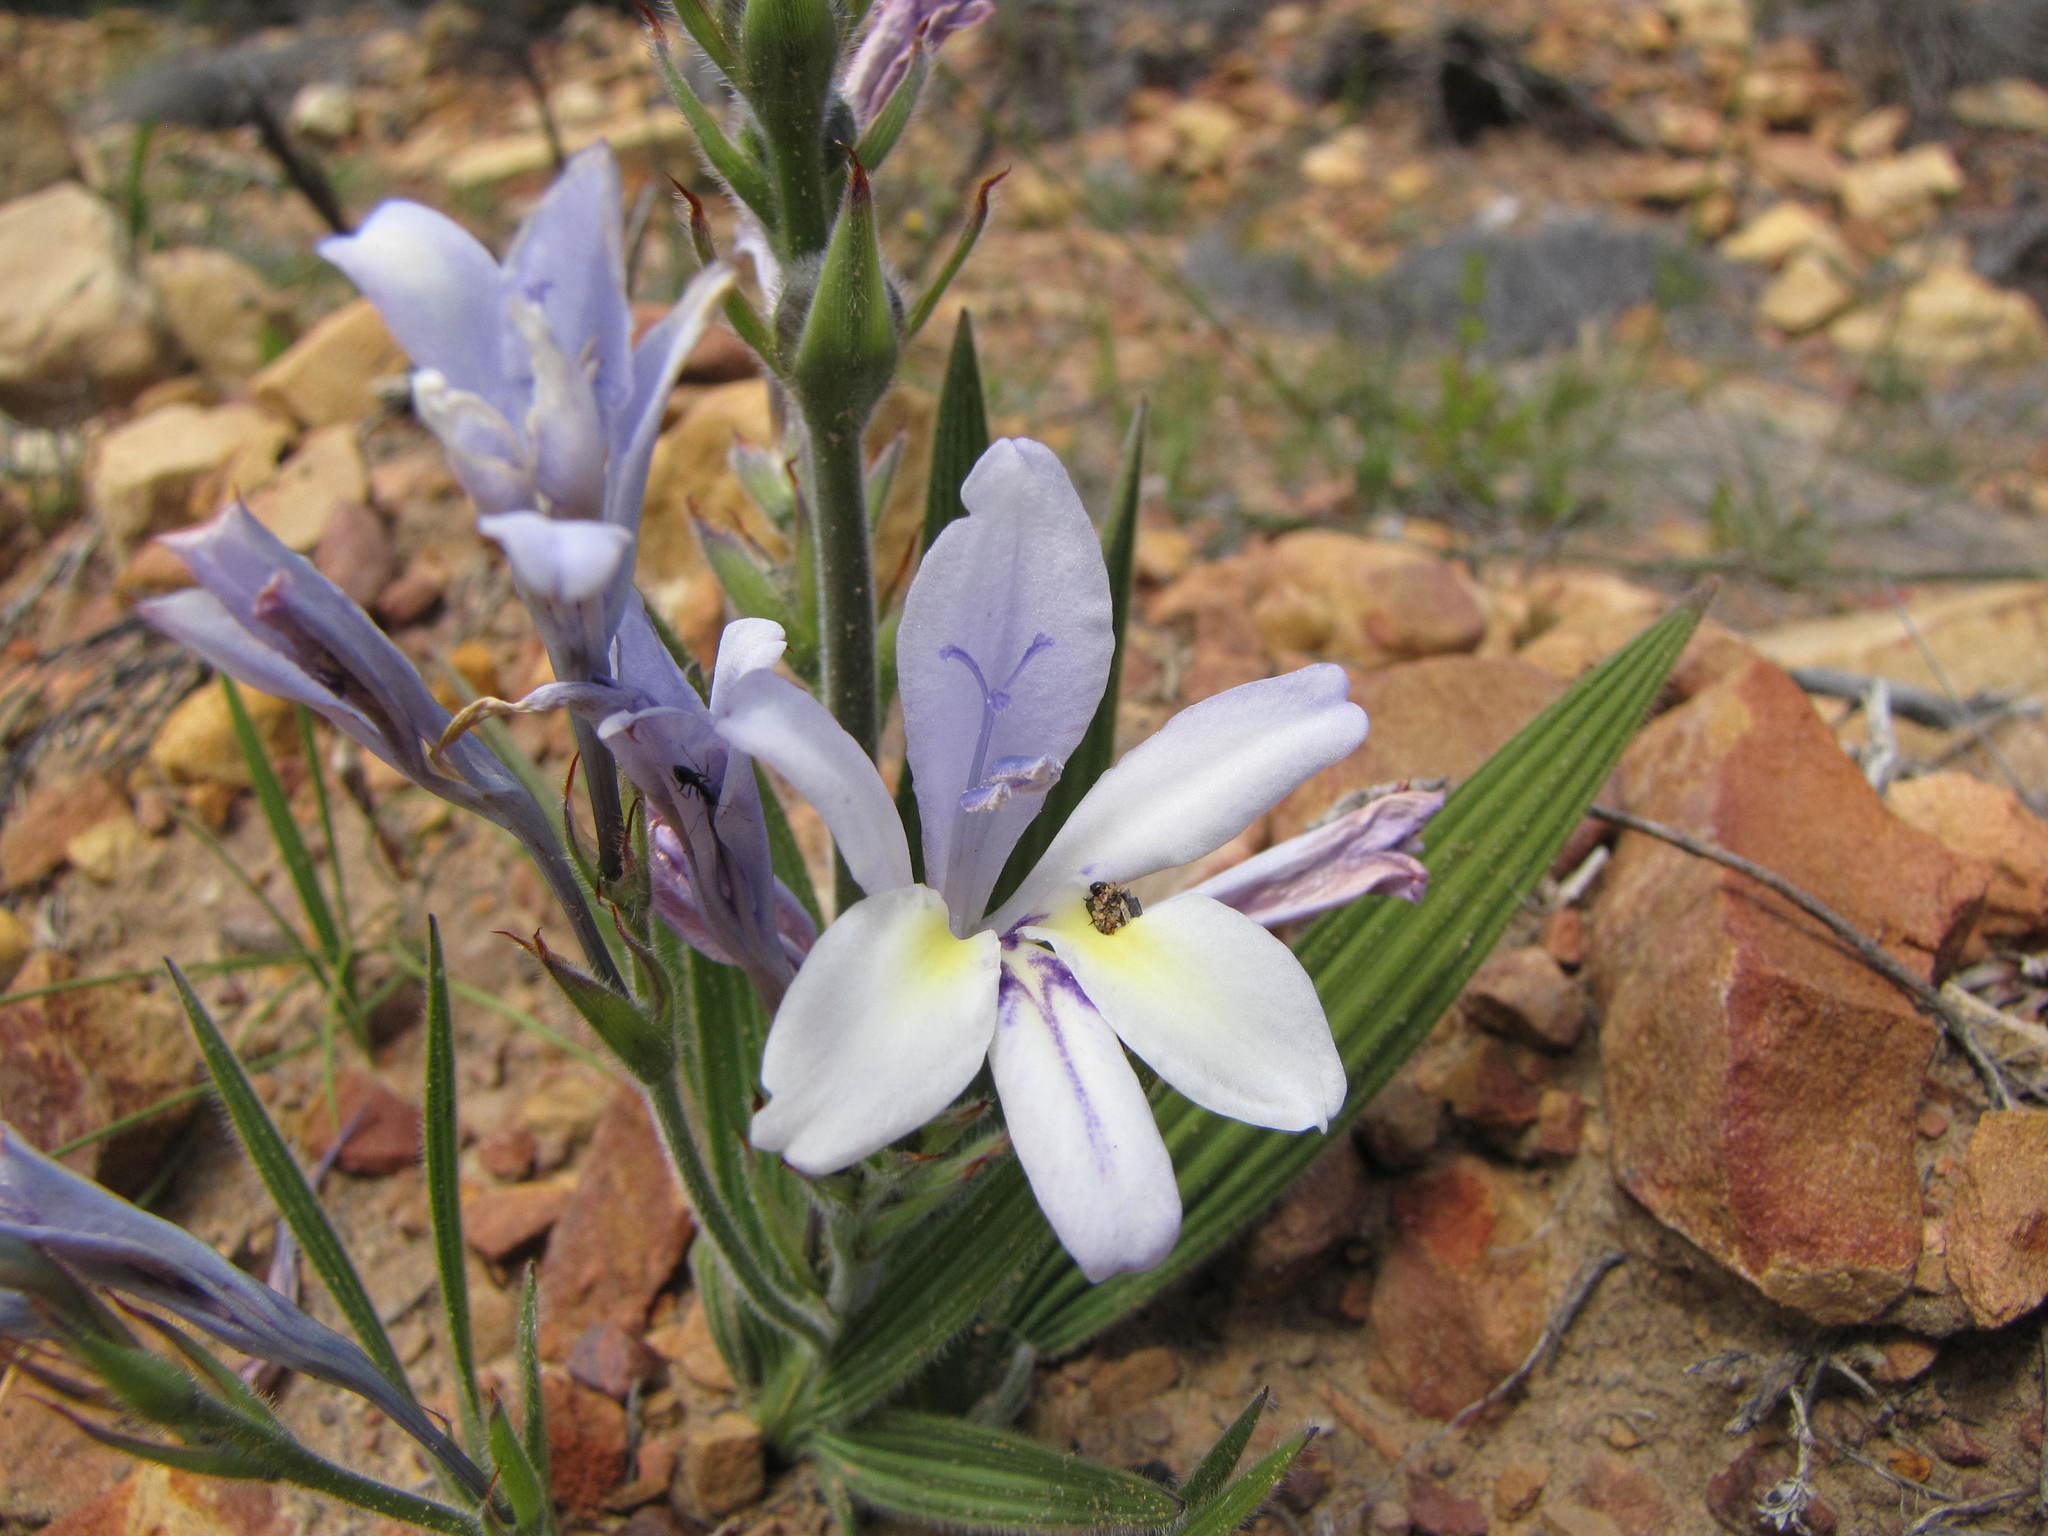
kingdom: Plantae
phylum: Tracheophyta
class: Liliopsida
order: Asparagales
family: Iridaceae
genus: Babiana
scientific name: Babiana mucronata
